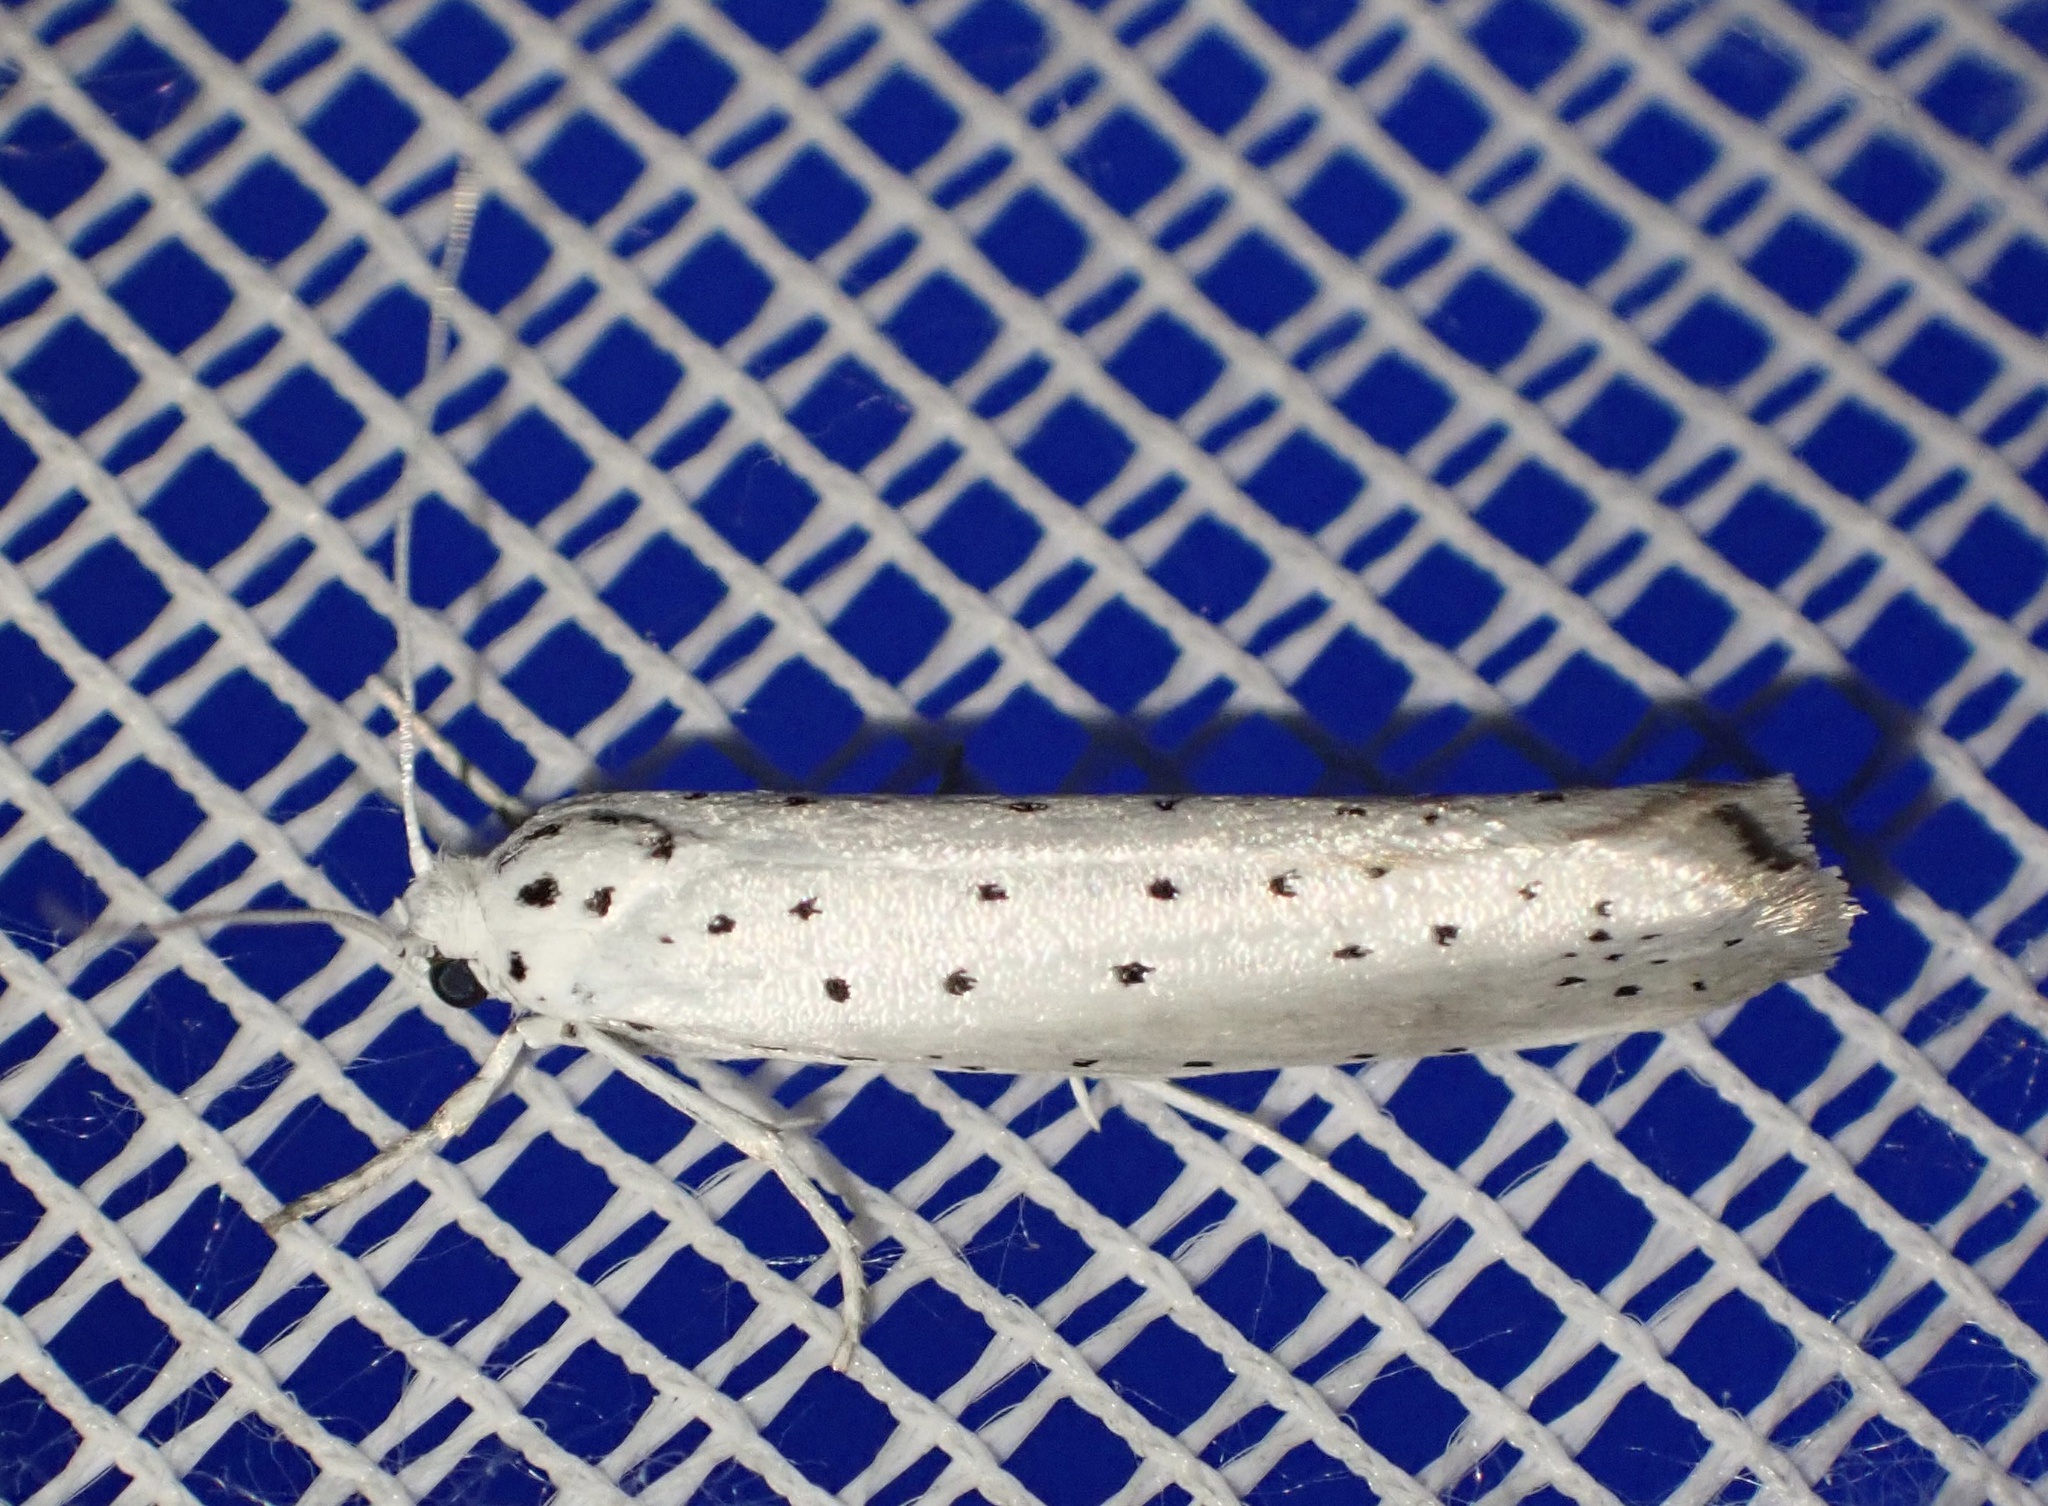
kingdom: Animalia
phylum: Arthropoda
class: Insecta
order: Lepidoptera
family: Yponomeutidae
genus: Yponomeuta
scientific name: Yponomeuta padella
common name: Orchard ermine
